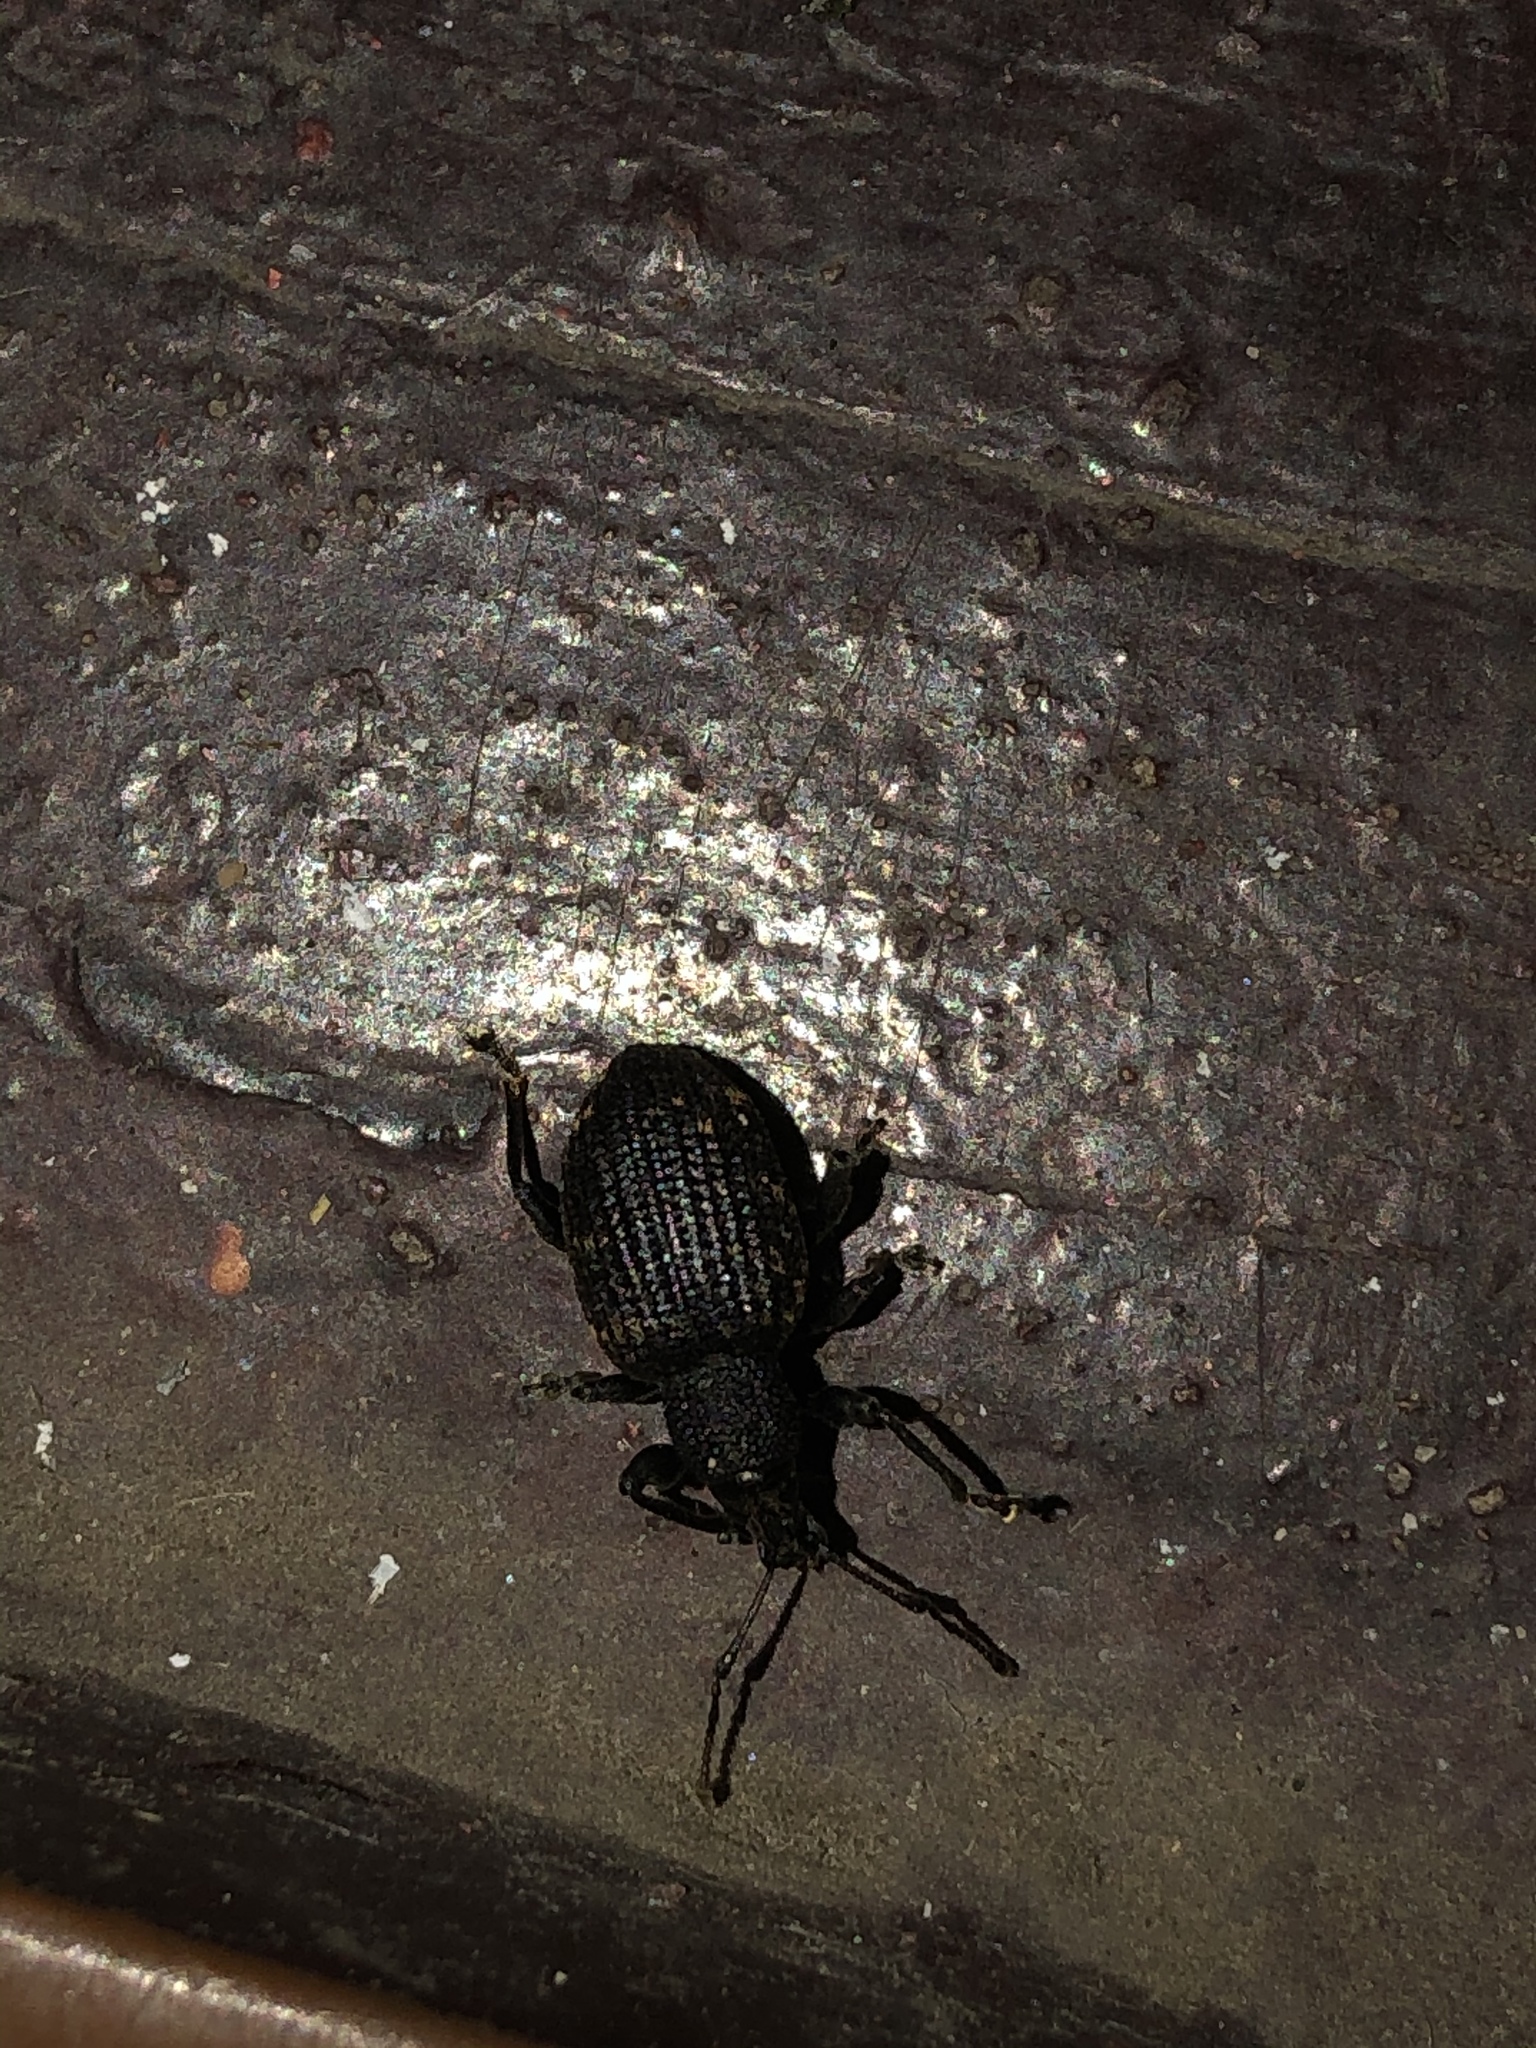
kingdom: Animalia
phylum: Arthropoda
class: Insecta
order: Coleoptera
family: Curculionidae
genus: Otiorhynchus
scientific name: Otiorhynchus sulcatus
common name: Black vine weevil
